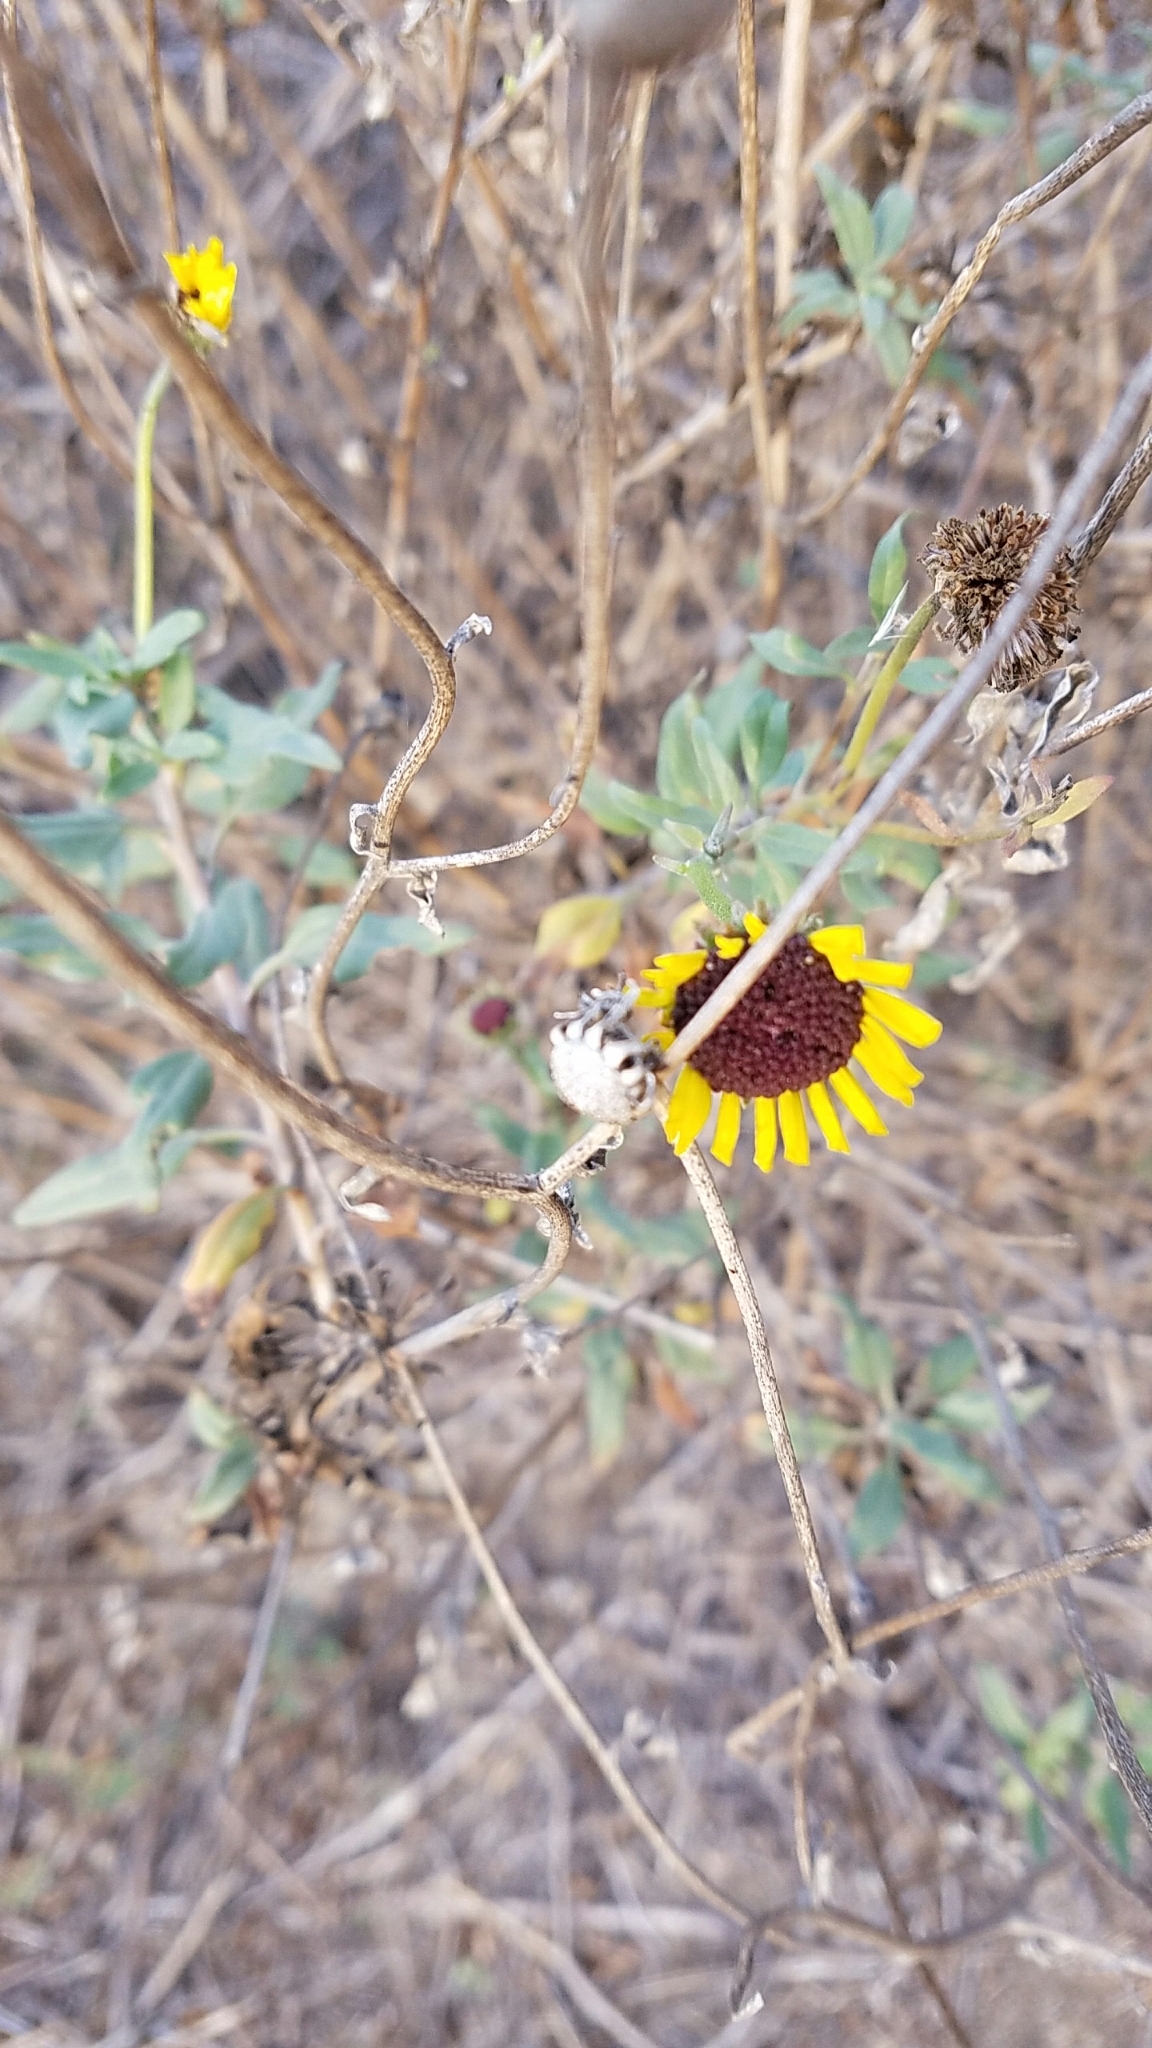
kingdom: Plantae
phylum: Tracheophyta
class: Magnoliopsida
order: Asterales
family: Asteraceae
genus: Encelia
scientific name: Encelia californica
